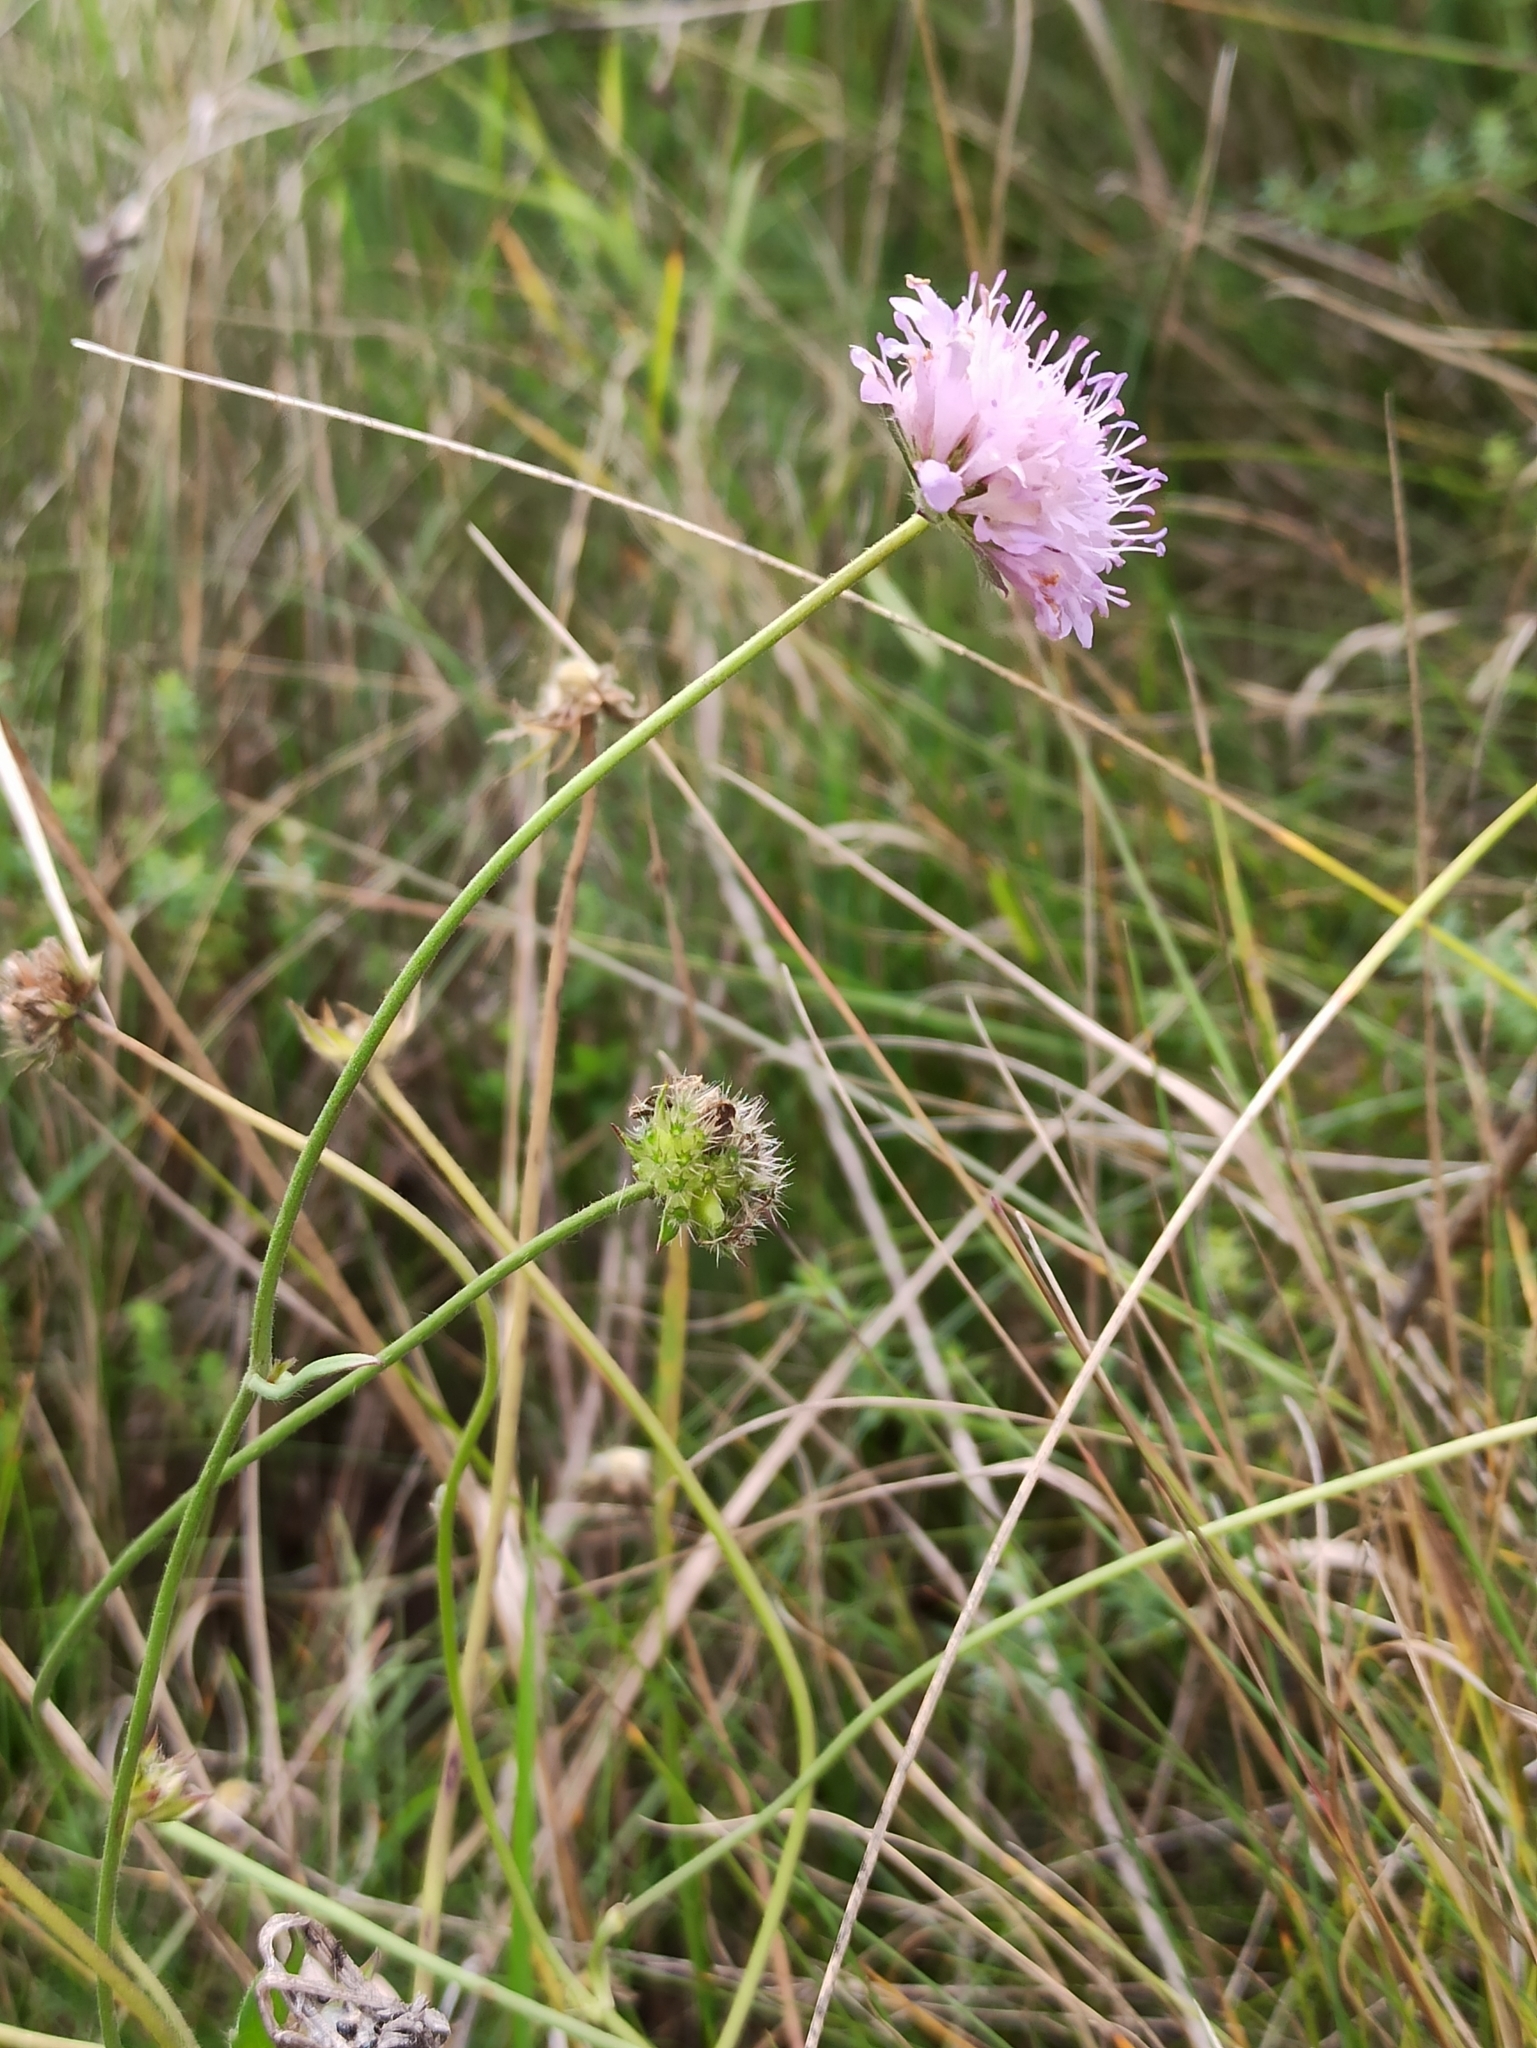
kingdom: Plantae
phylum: Tracheophyta
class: Magnoliopsida
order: Dipsacales
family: Caprifoliaceae
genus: Knautia
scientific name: Knautia arvensis
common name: Field scabiosa
